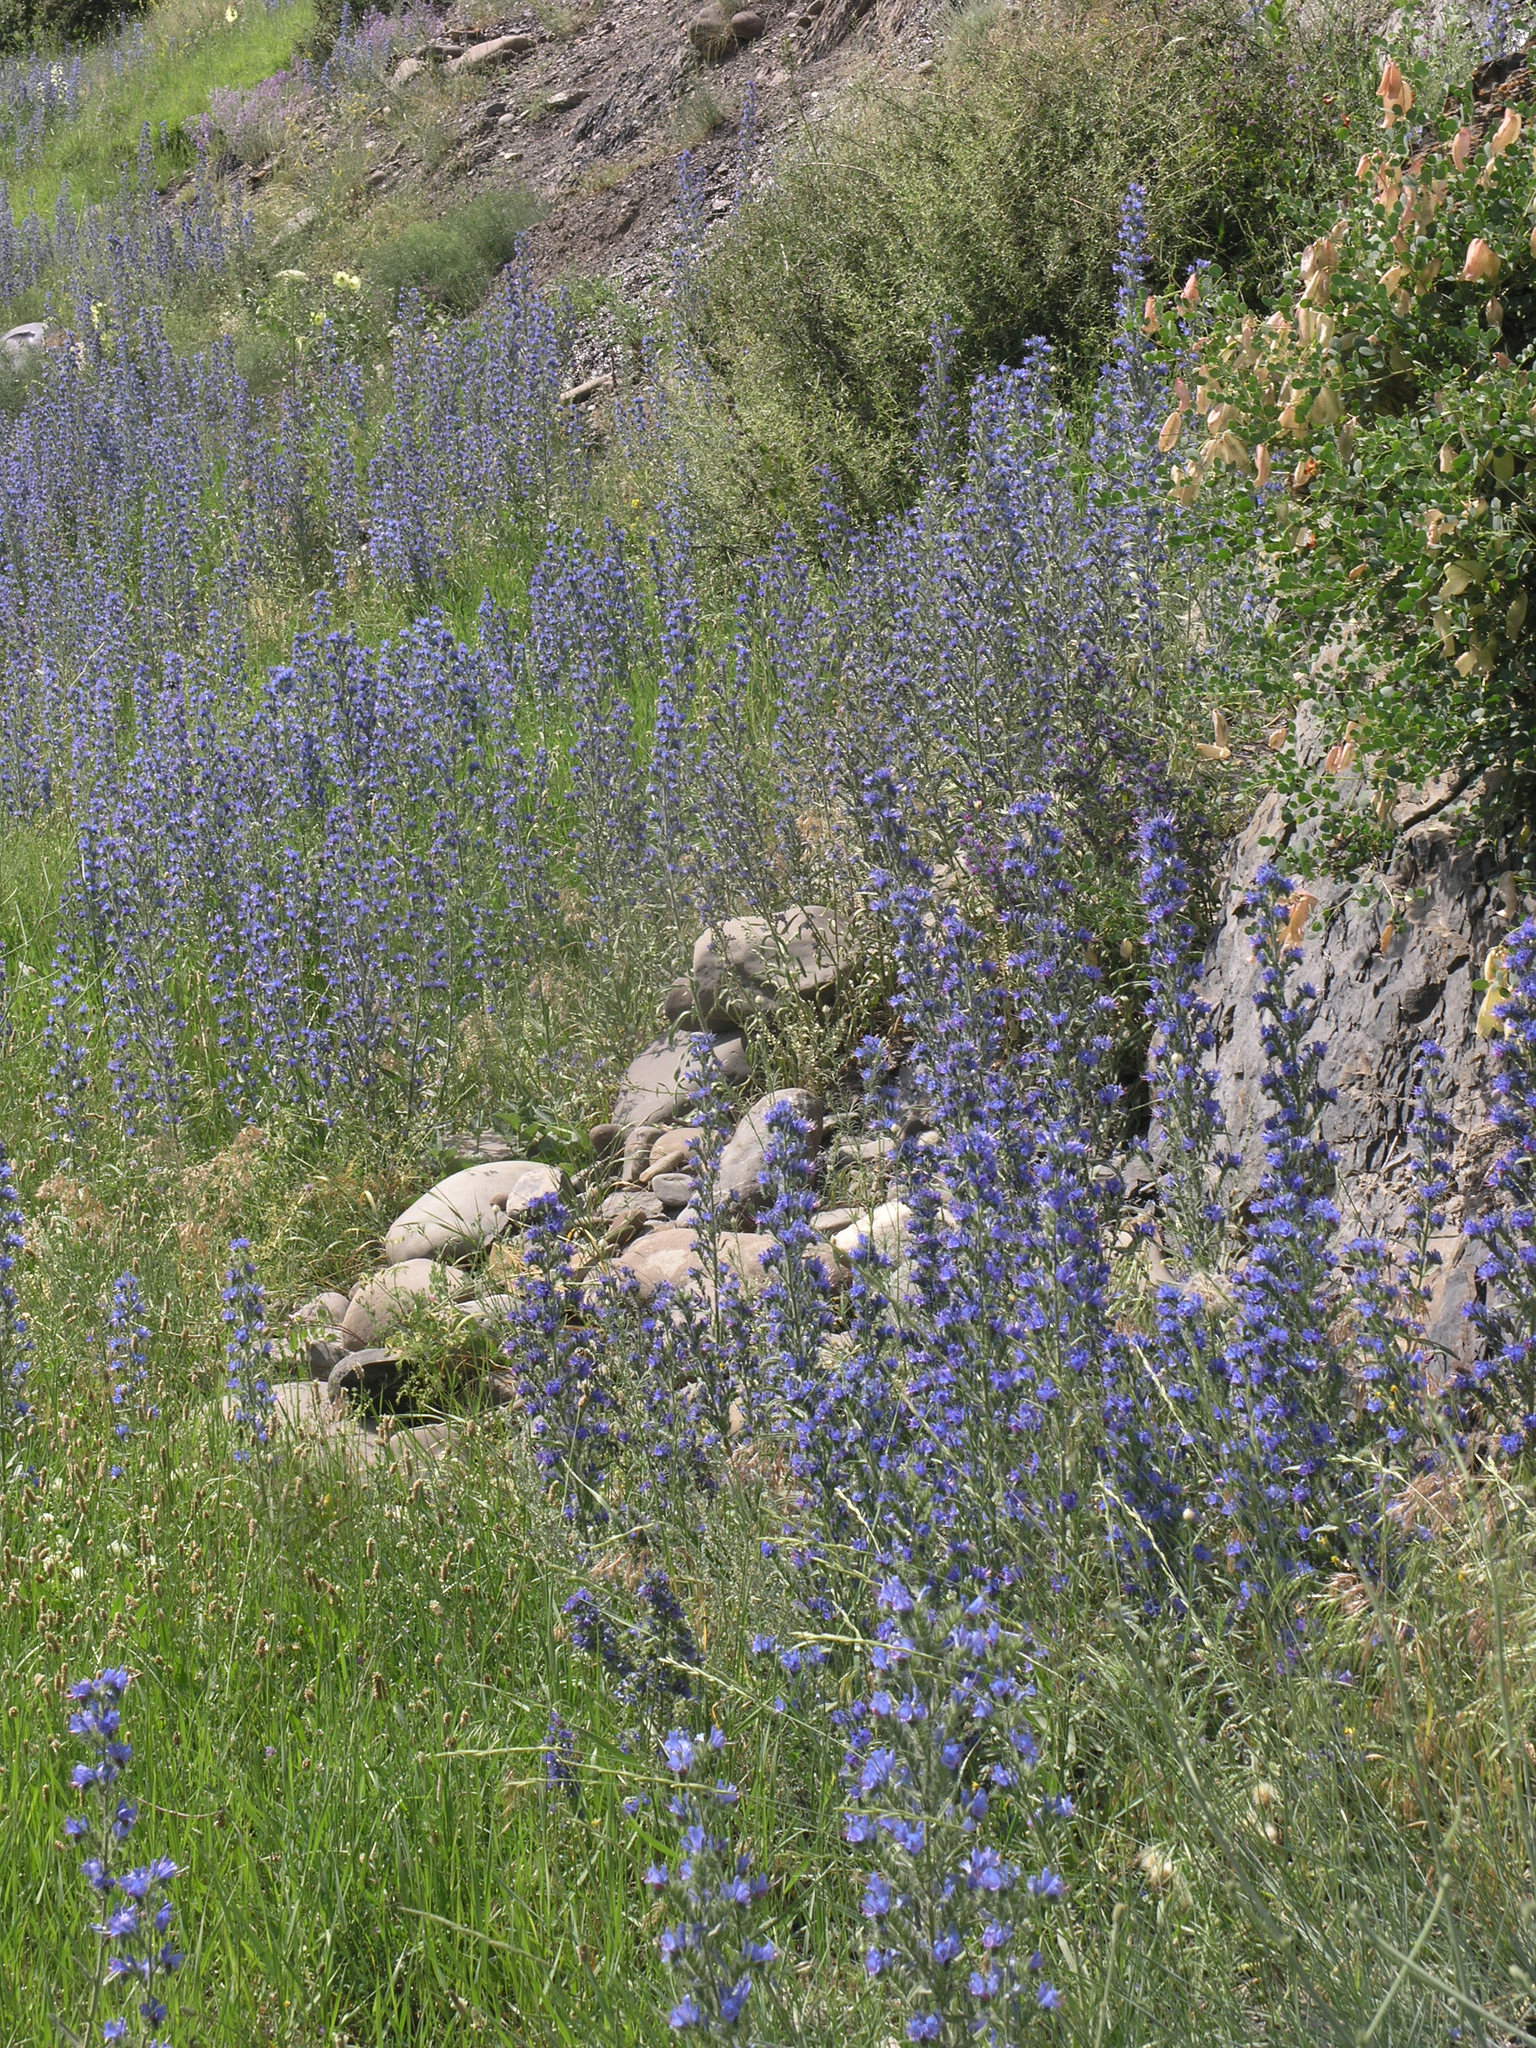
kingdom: Plantae
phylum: Tracheophyta
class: Magnoliopsida
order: Boraginales
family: Boraginaceae
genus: Echium
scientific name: Echium vulgare
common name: Common viper's bugloss
